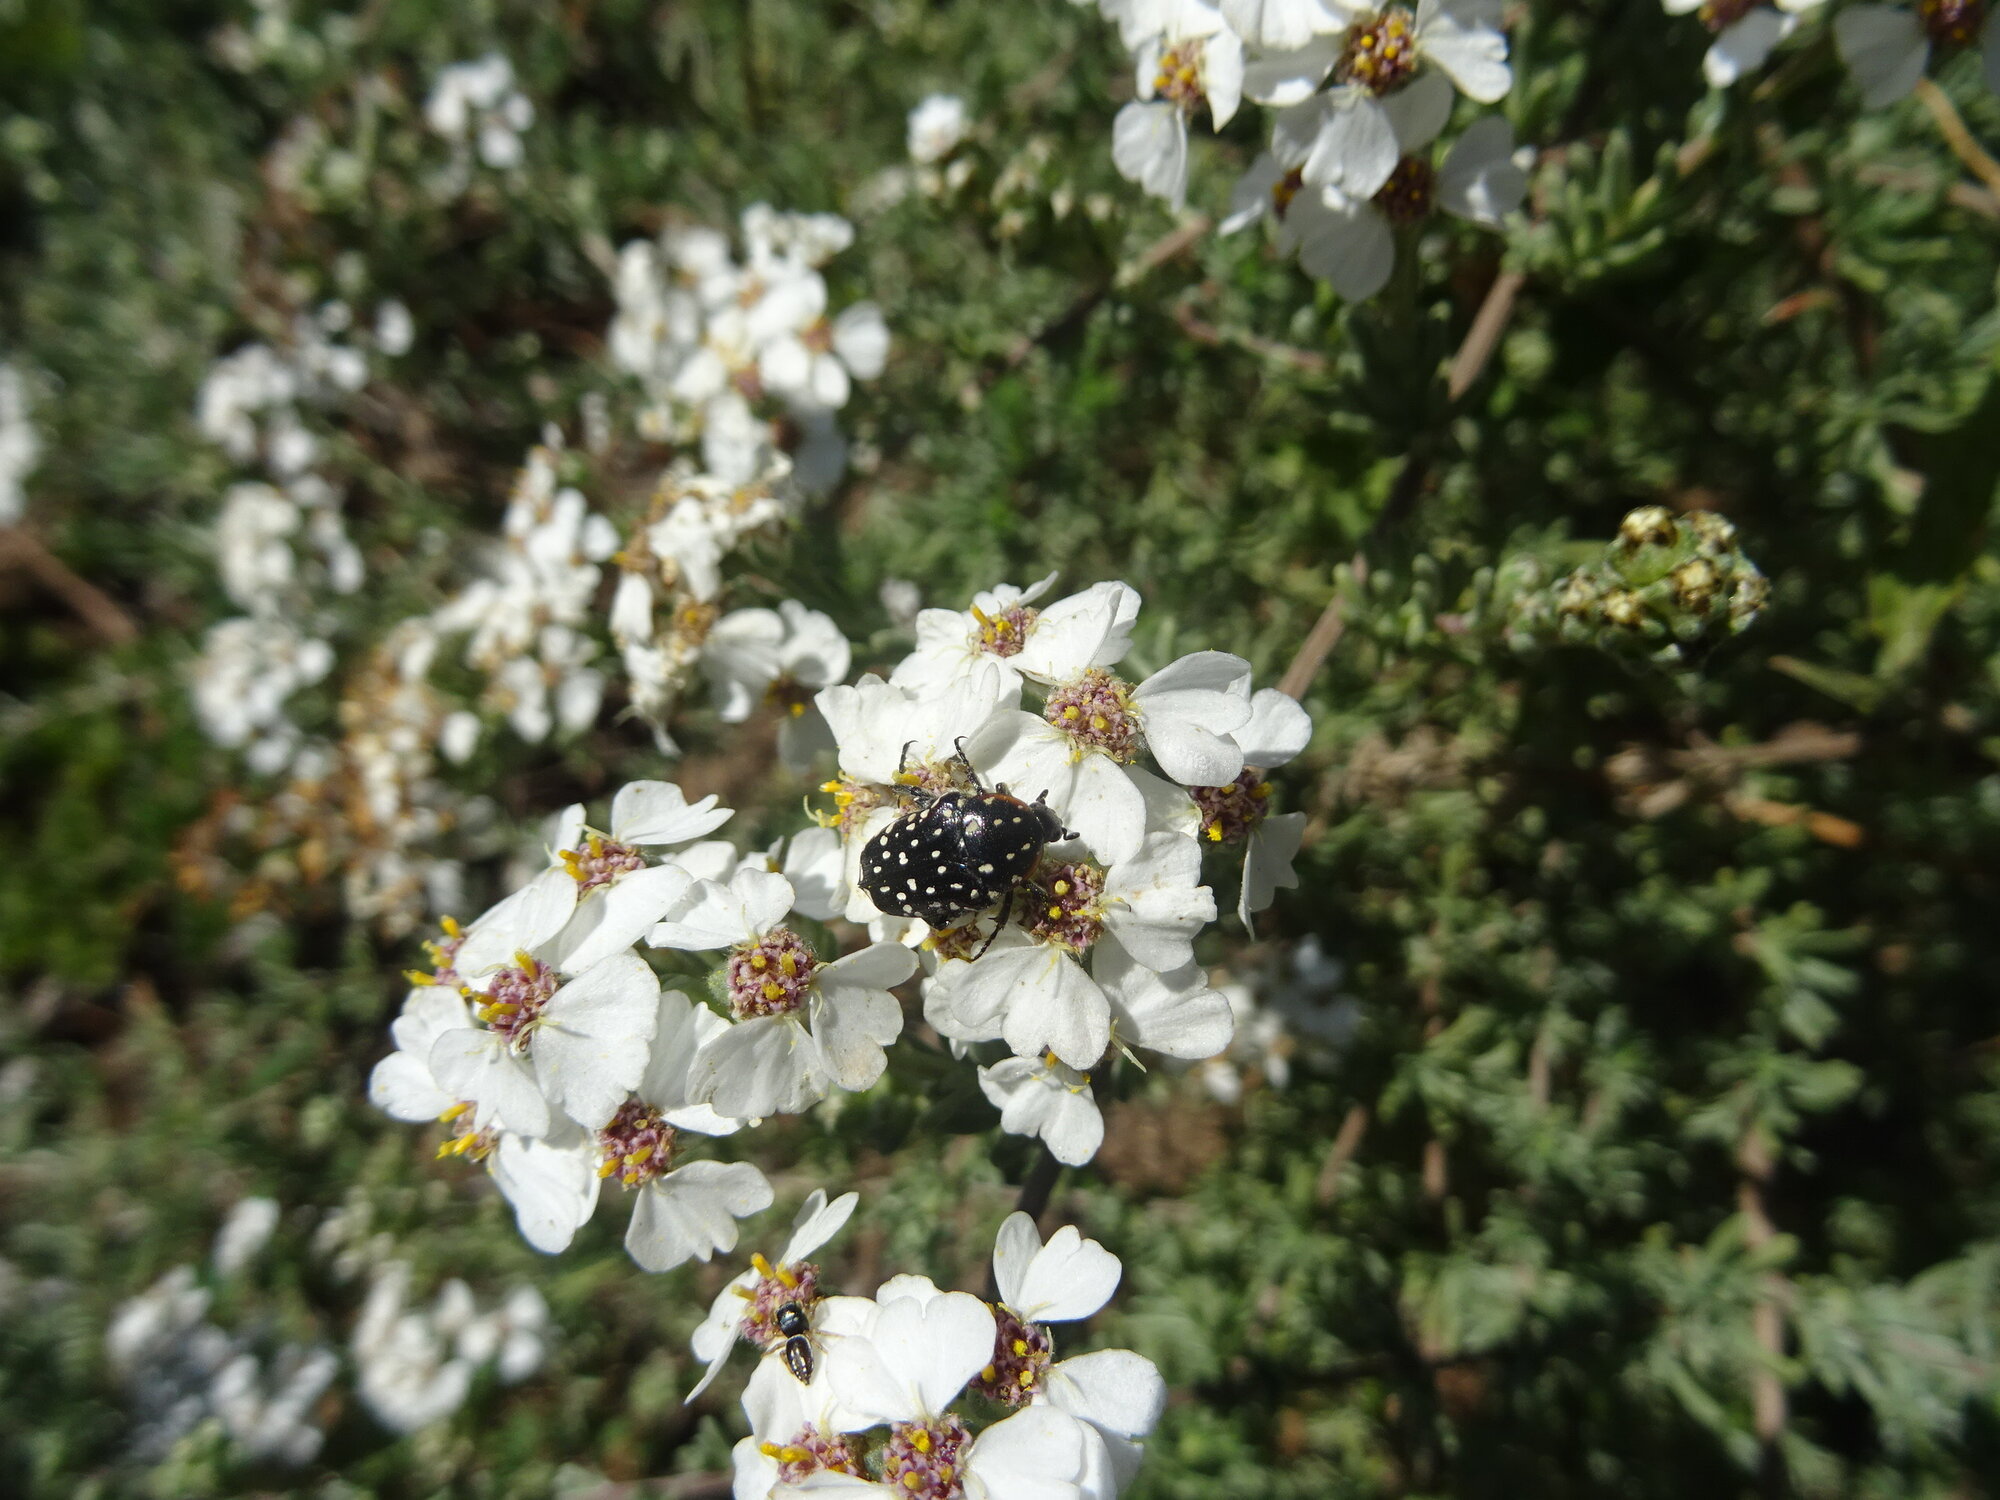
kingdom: Animalia
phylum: Arthropoda
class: Insecta
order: Coleoptera
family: Scarabaeidae
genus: Oxythyrea
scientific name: Oxythyrea
